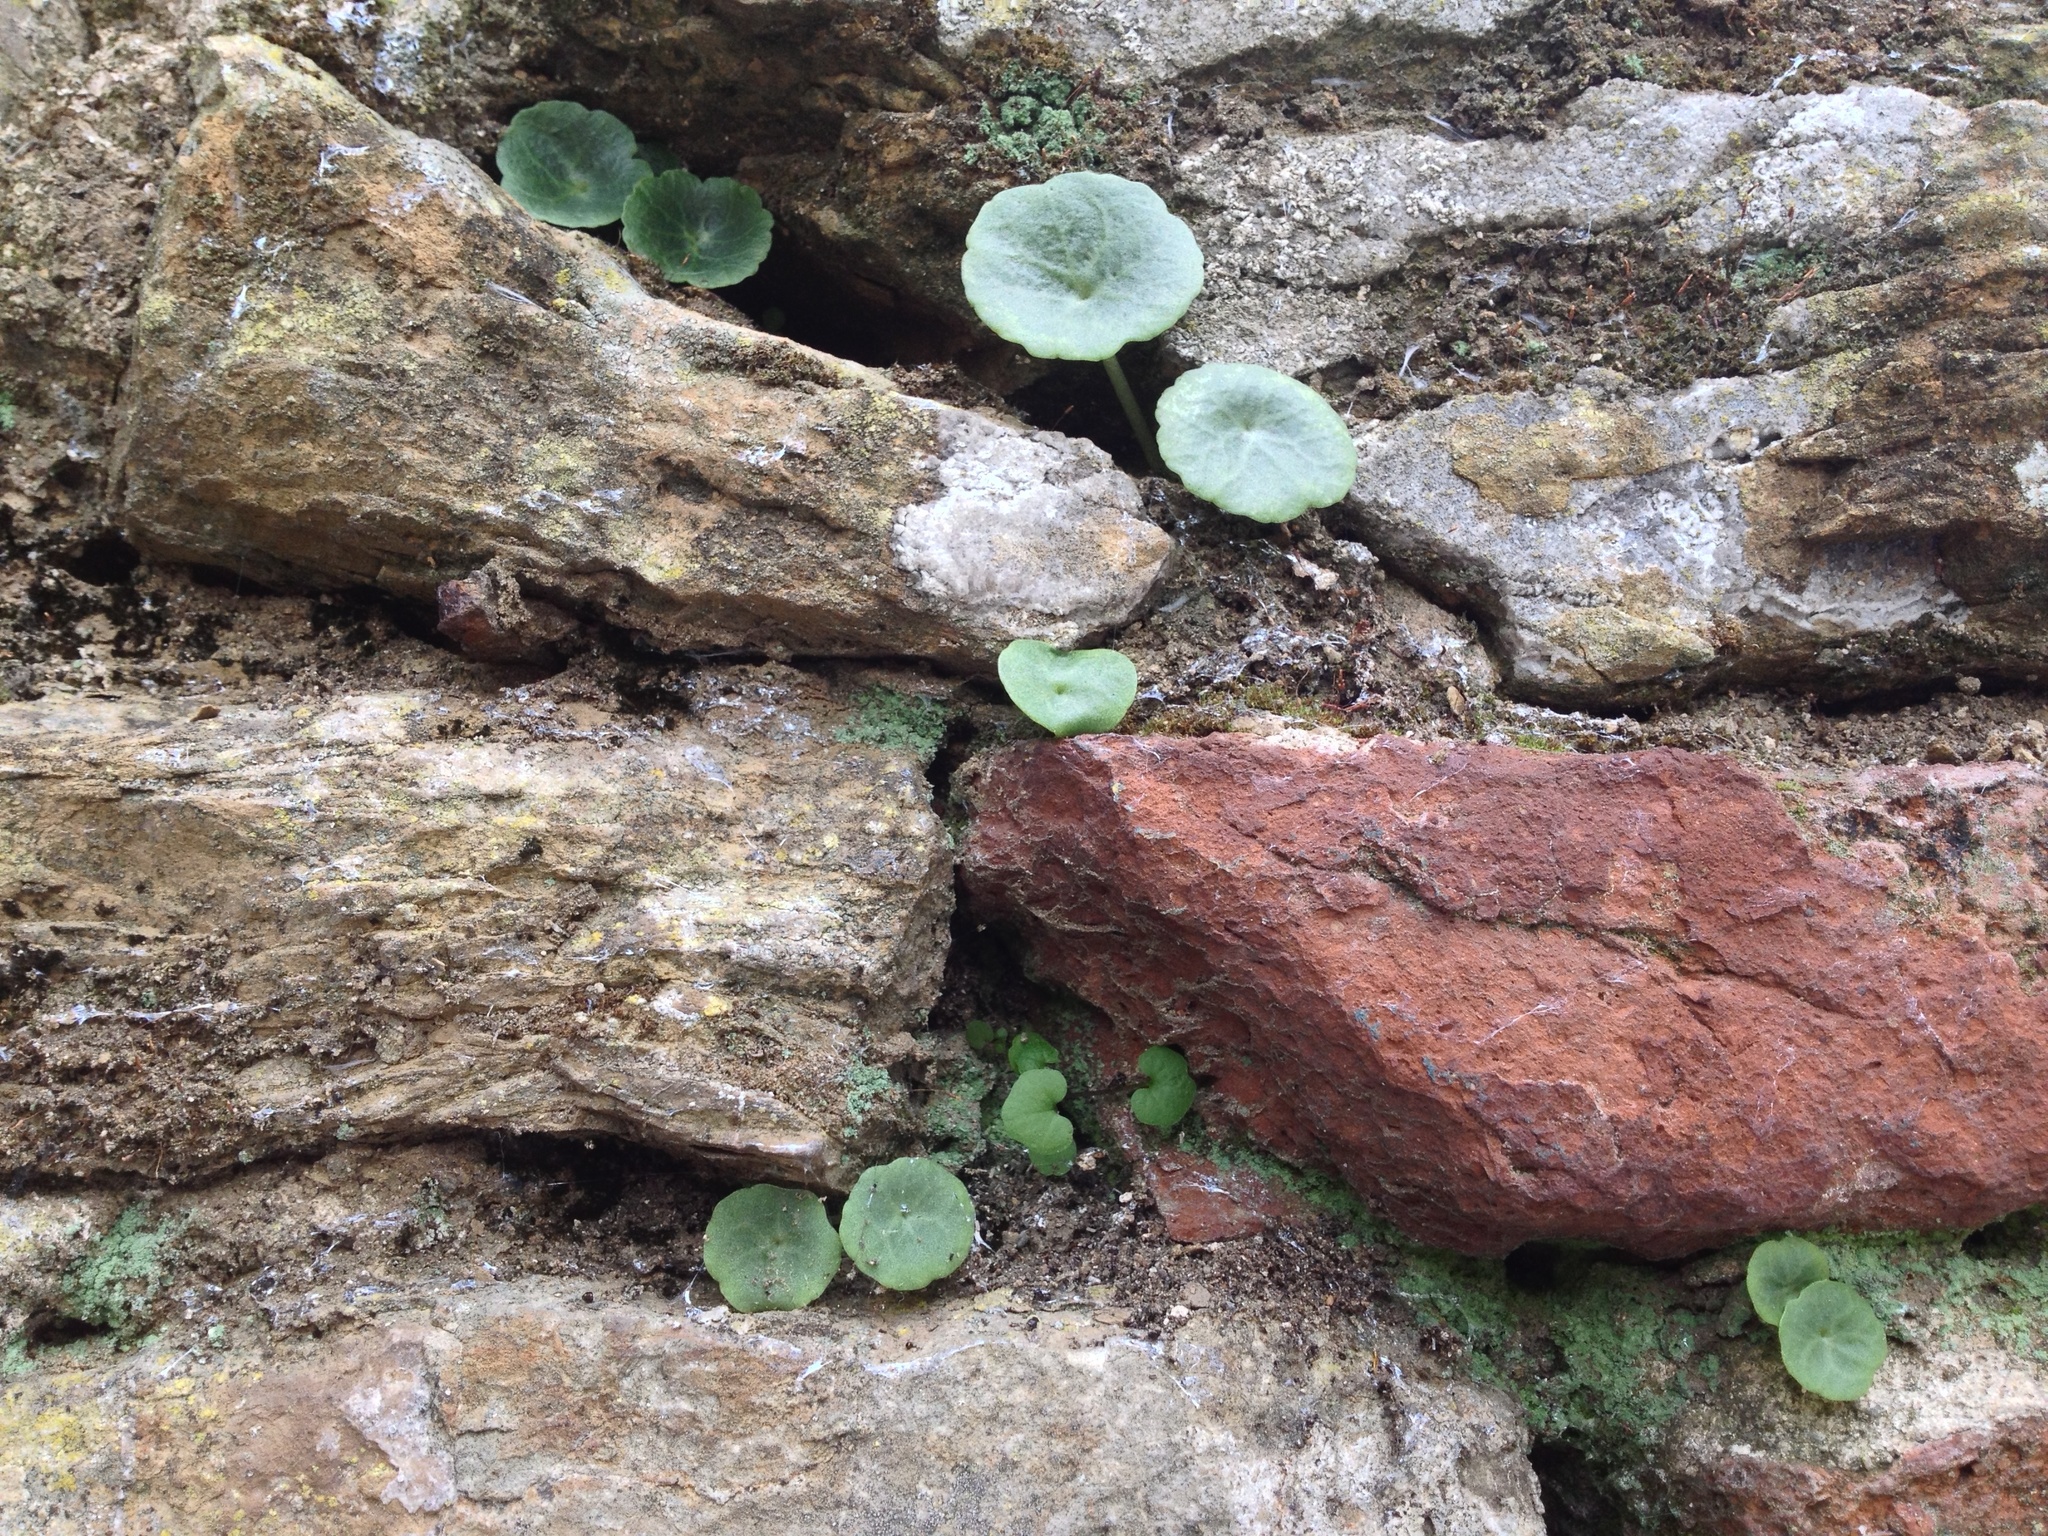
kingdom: Plantae
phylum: Tracheophyta
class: Magnoliopsida
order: Saxifragales
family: Crassulaceae
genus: Umbilicus
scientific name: Umbilicus rupestris
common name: Navelwort
